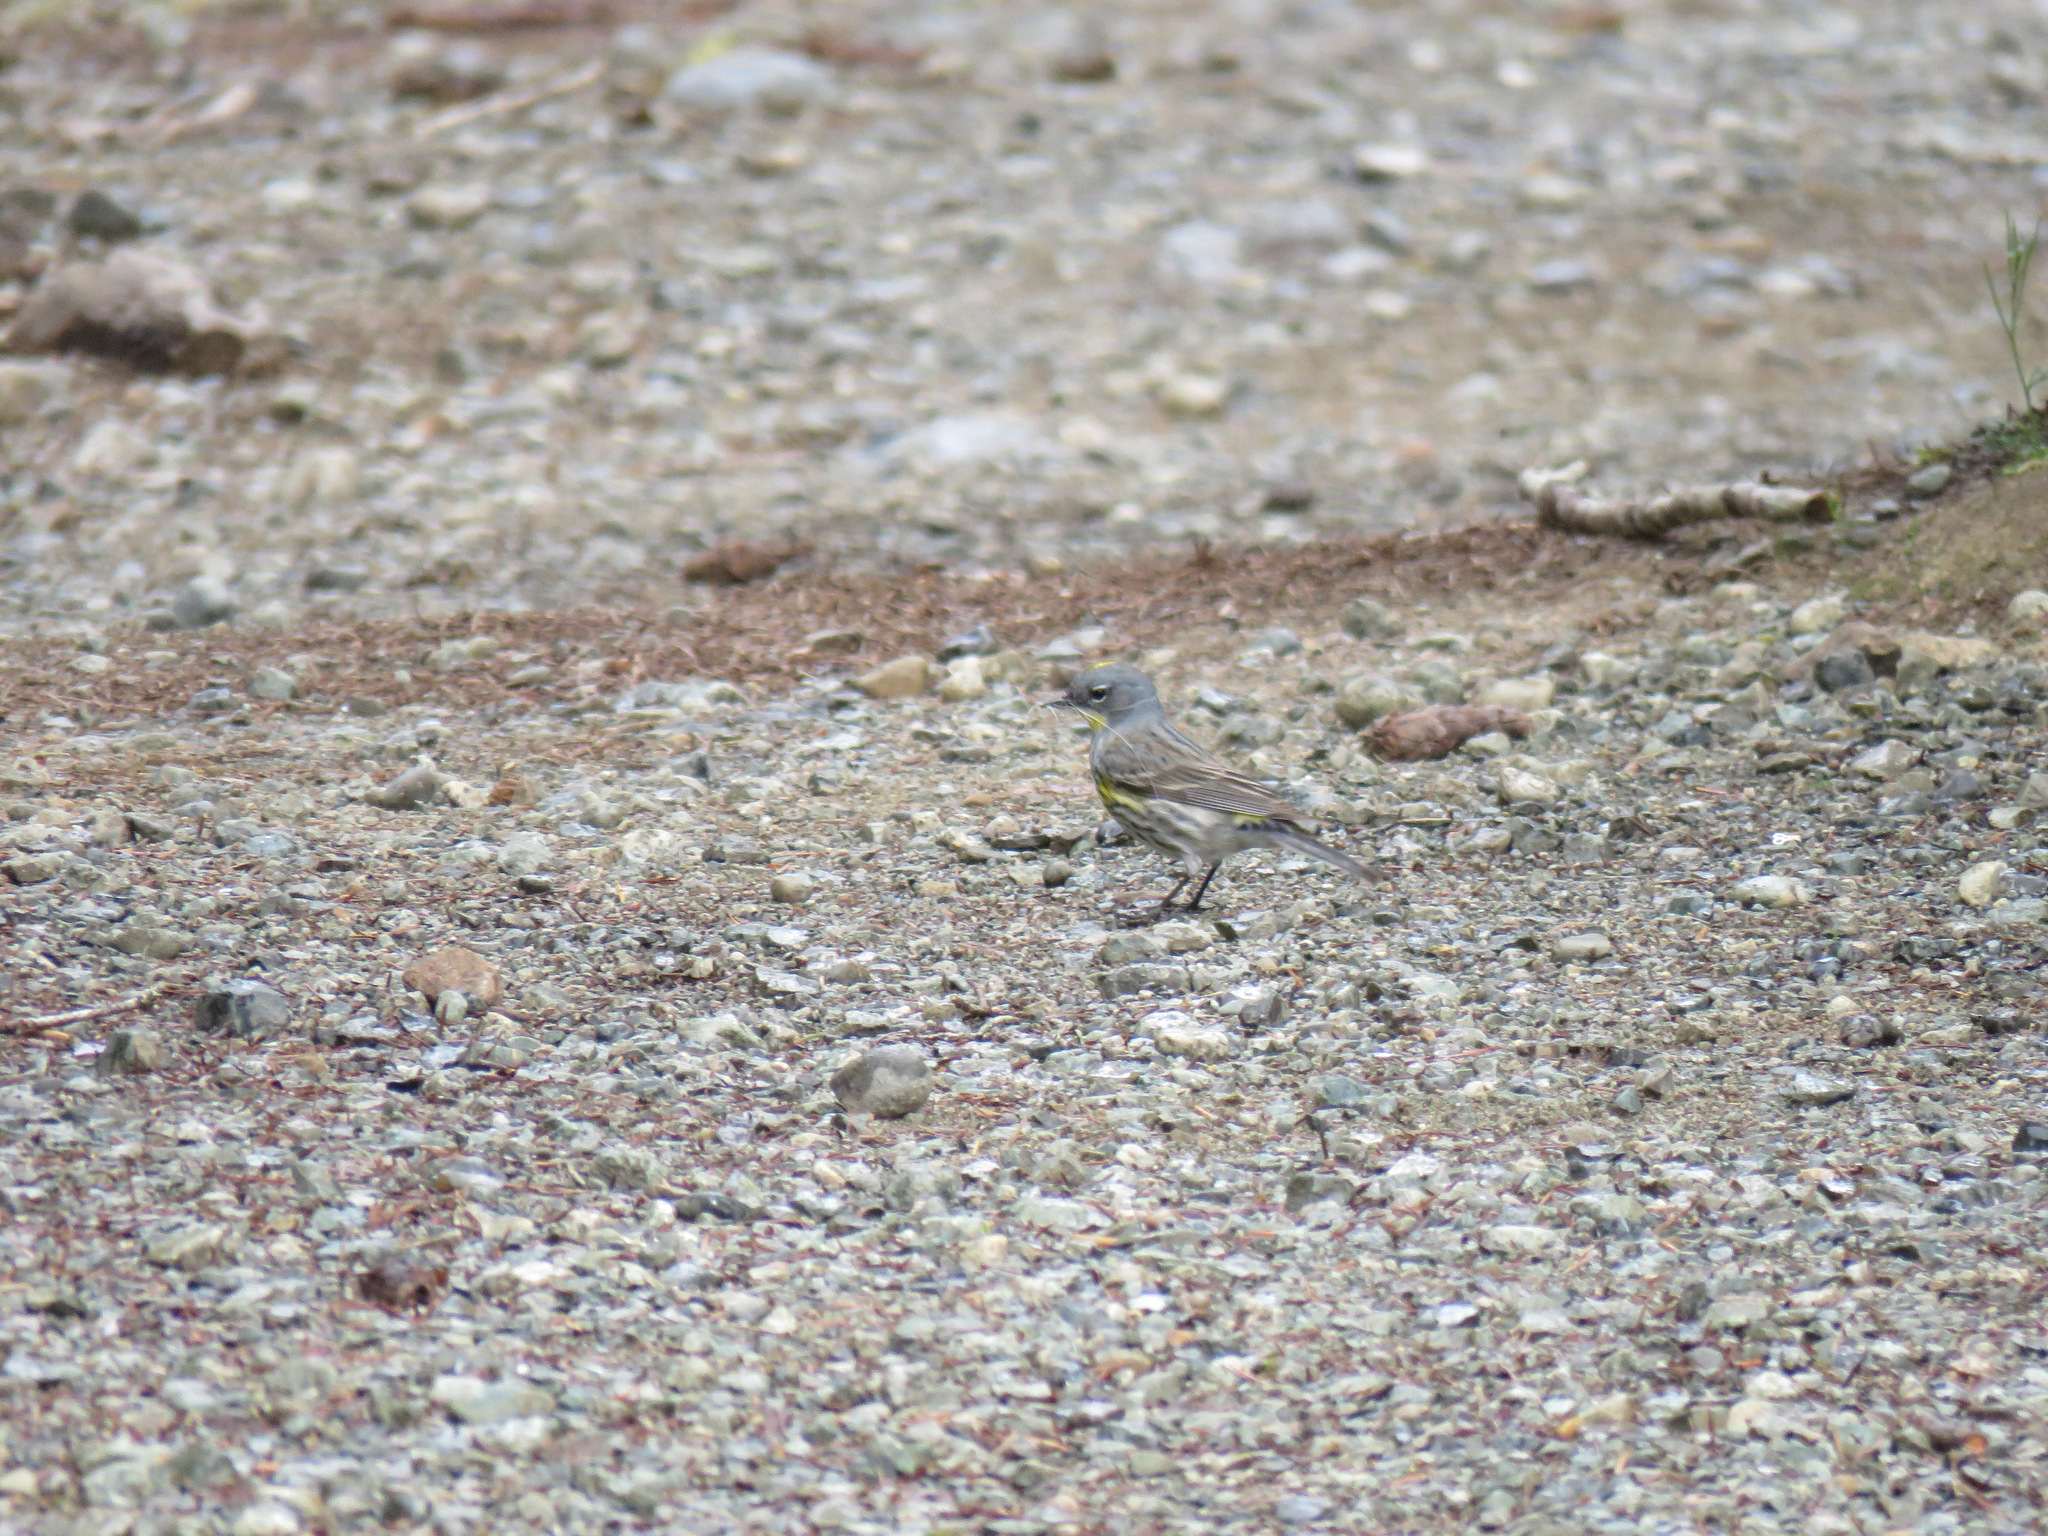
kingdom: Animalia
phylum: Chordata
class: Aves
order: Passeriformes
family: Parulidae
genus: Setophaga
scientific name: Setophaga coronata
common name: Myrtle warbler
